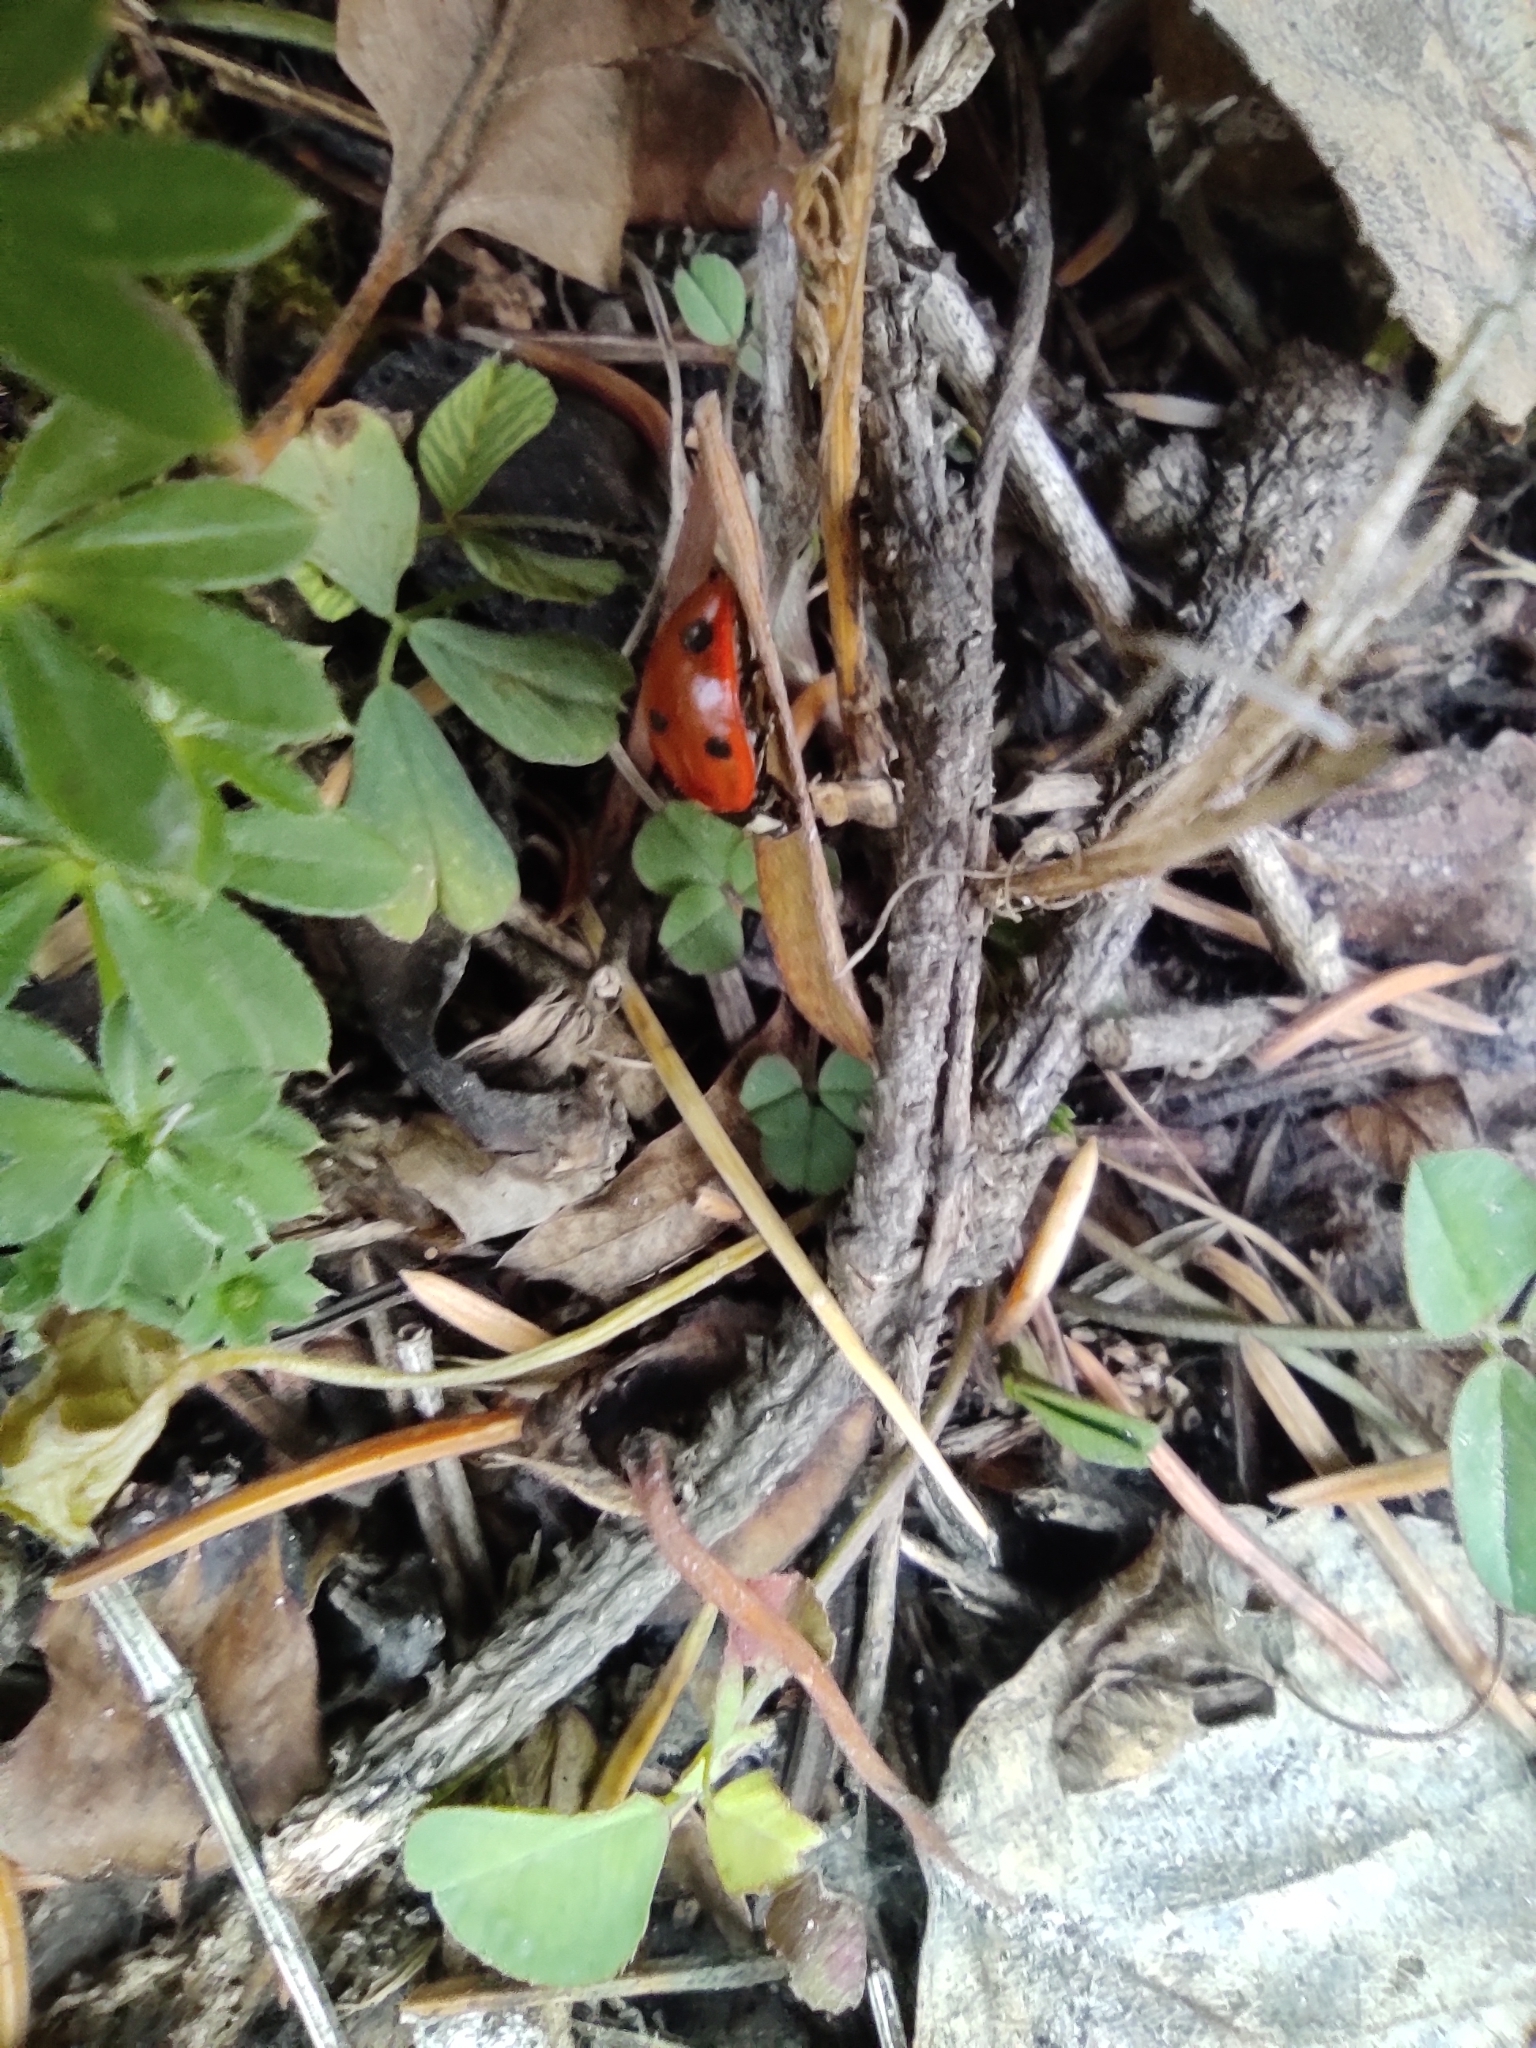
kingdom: Animalia
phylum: Arthropoda
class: Insecta
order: Coleoptera
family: Coccinellidae
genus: Coccinella
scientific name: Coccinella septempunctata
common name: Sevenspotted lady beetle
